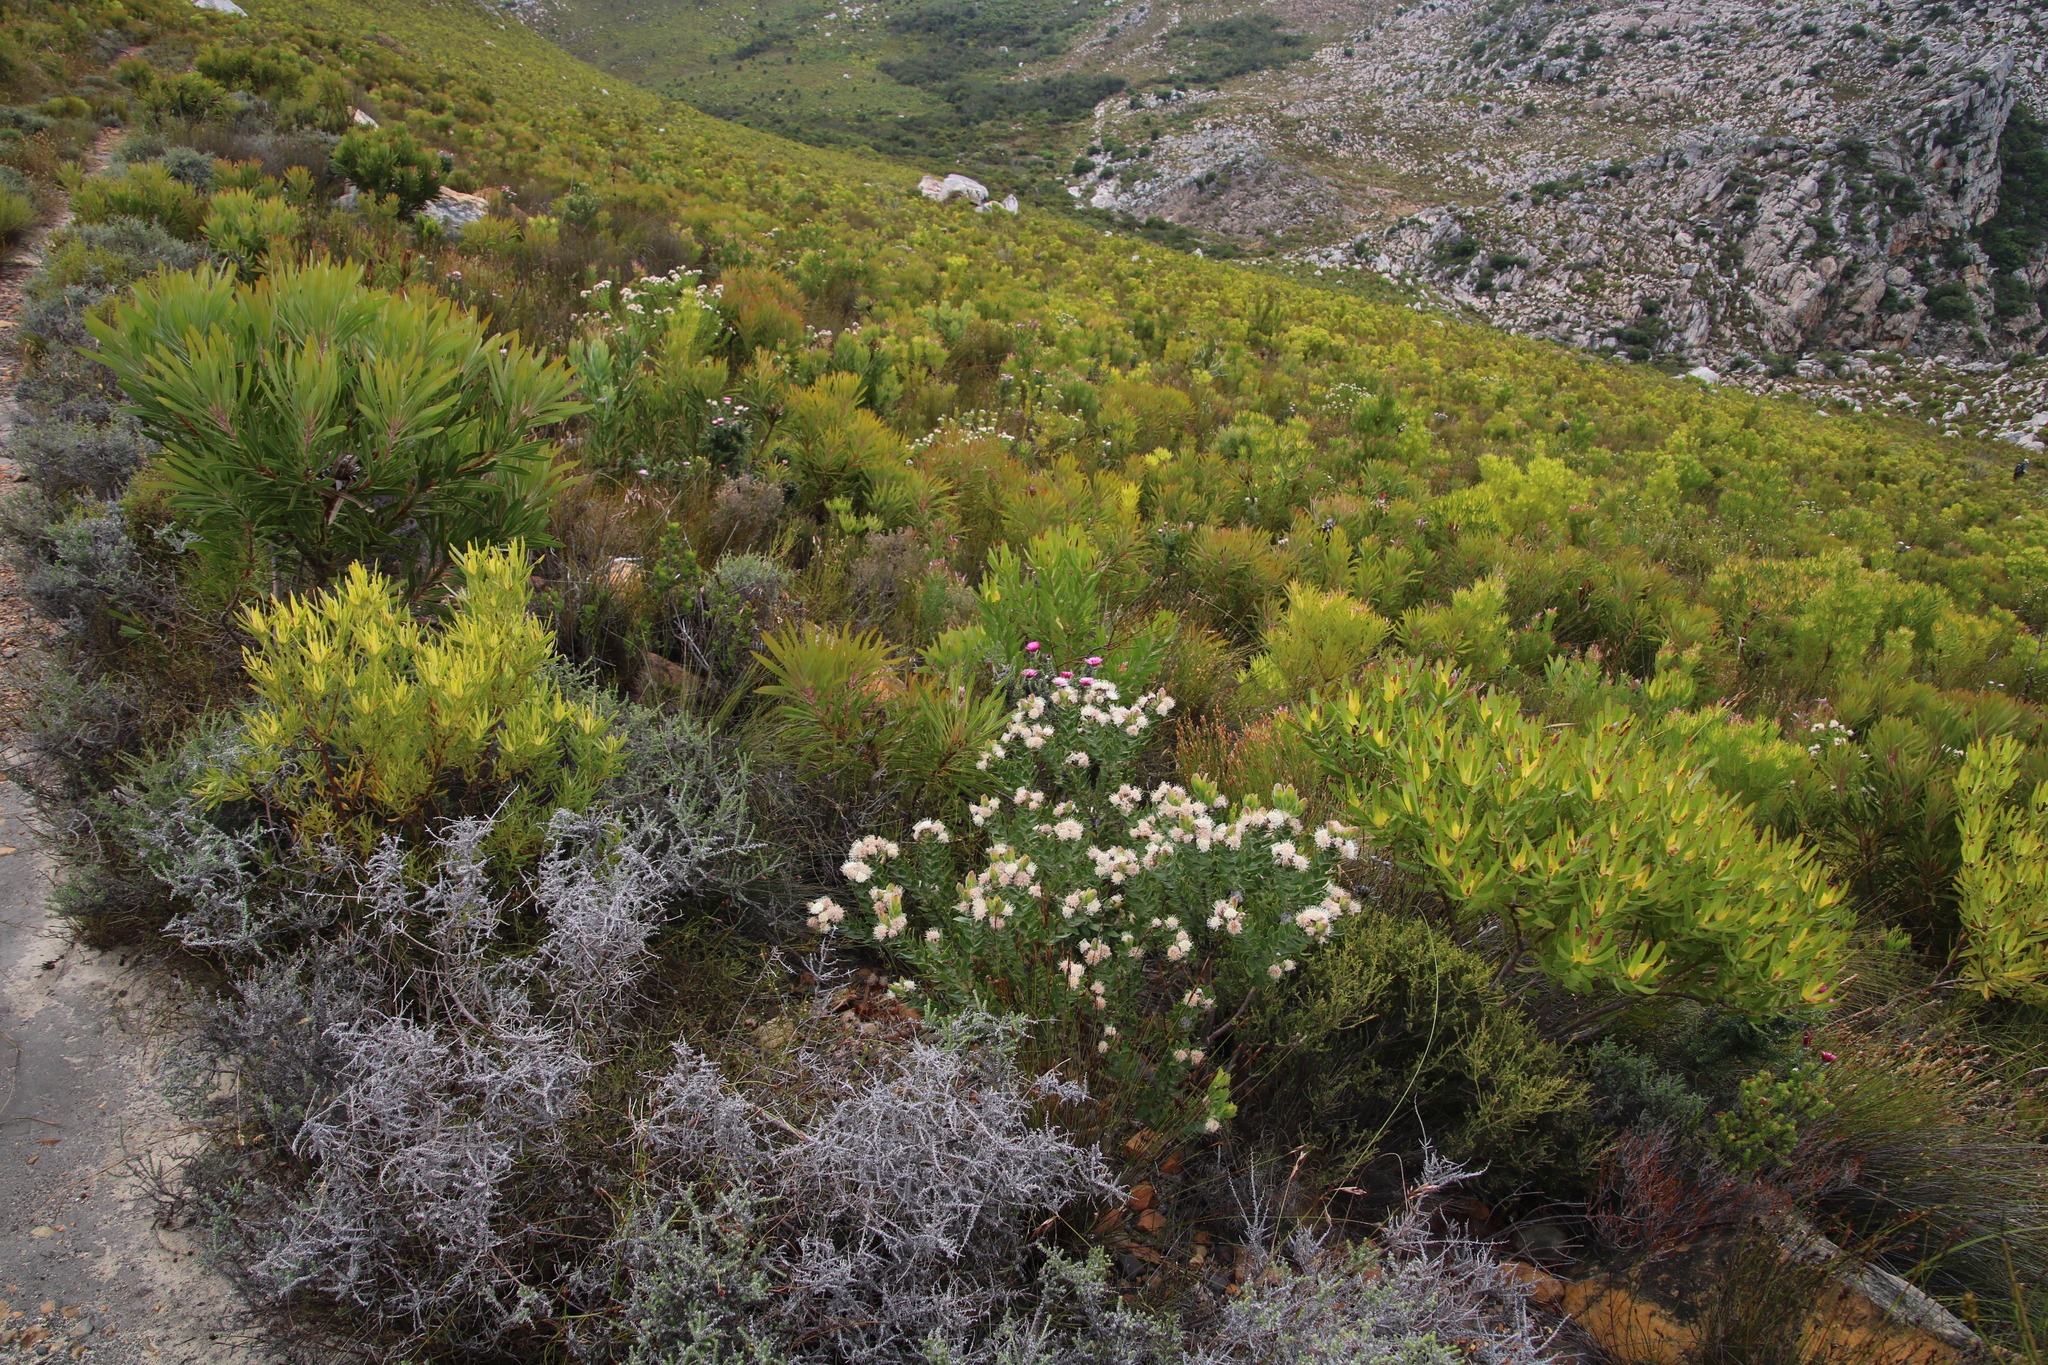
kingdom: Plantae
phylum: Tracheophyta
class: Magnoliopsida
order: Proteales
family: Proteaceae
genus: Leucospermum
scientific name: Leucospermum bolusii
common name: Gordon's bay pincushion
